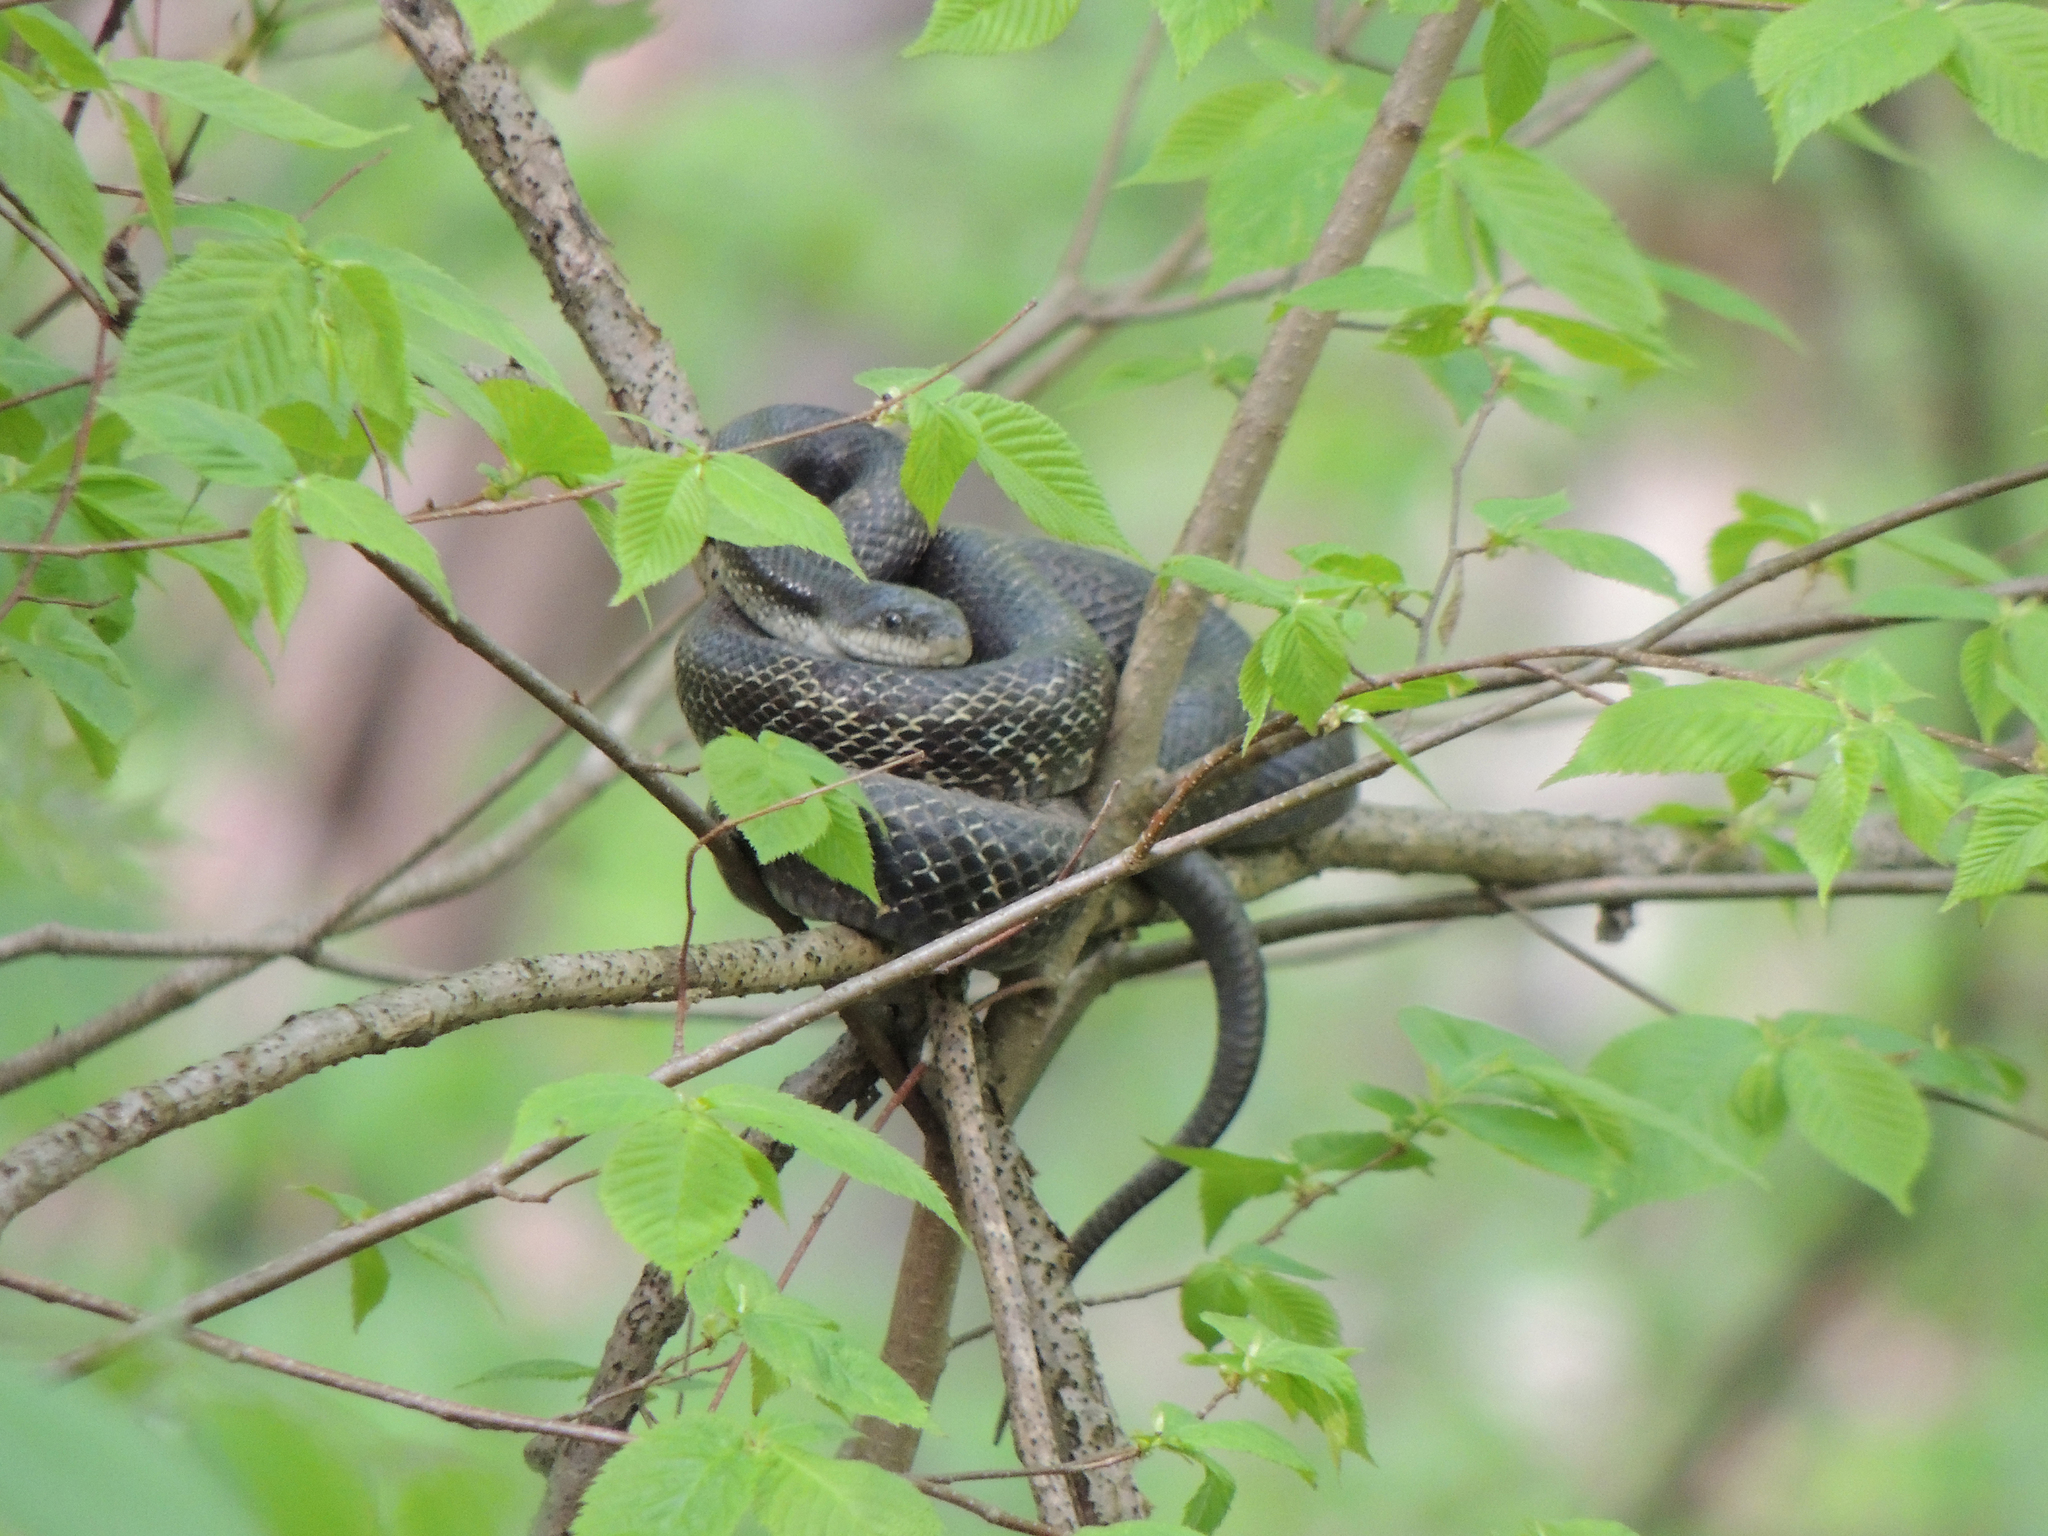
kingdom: Animalia
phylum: Chordata
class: Squamata
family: Colubridae
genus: Pantherophis
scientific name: Pantherophis spiloides
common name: Gray rat snake
